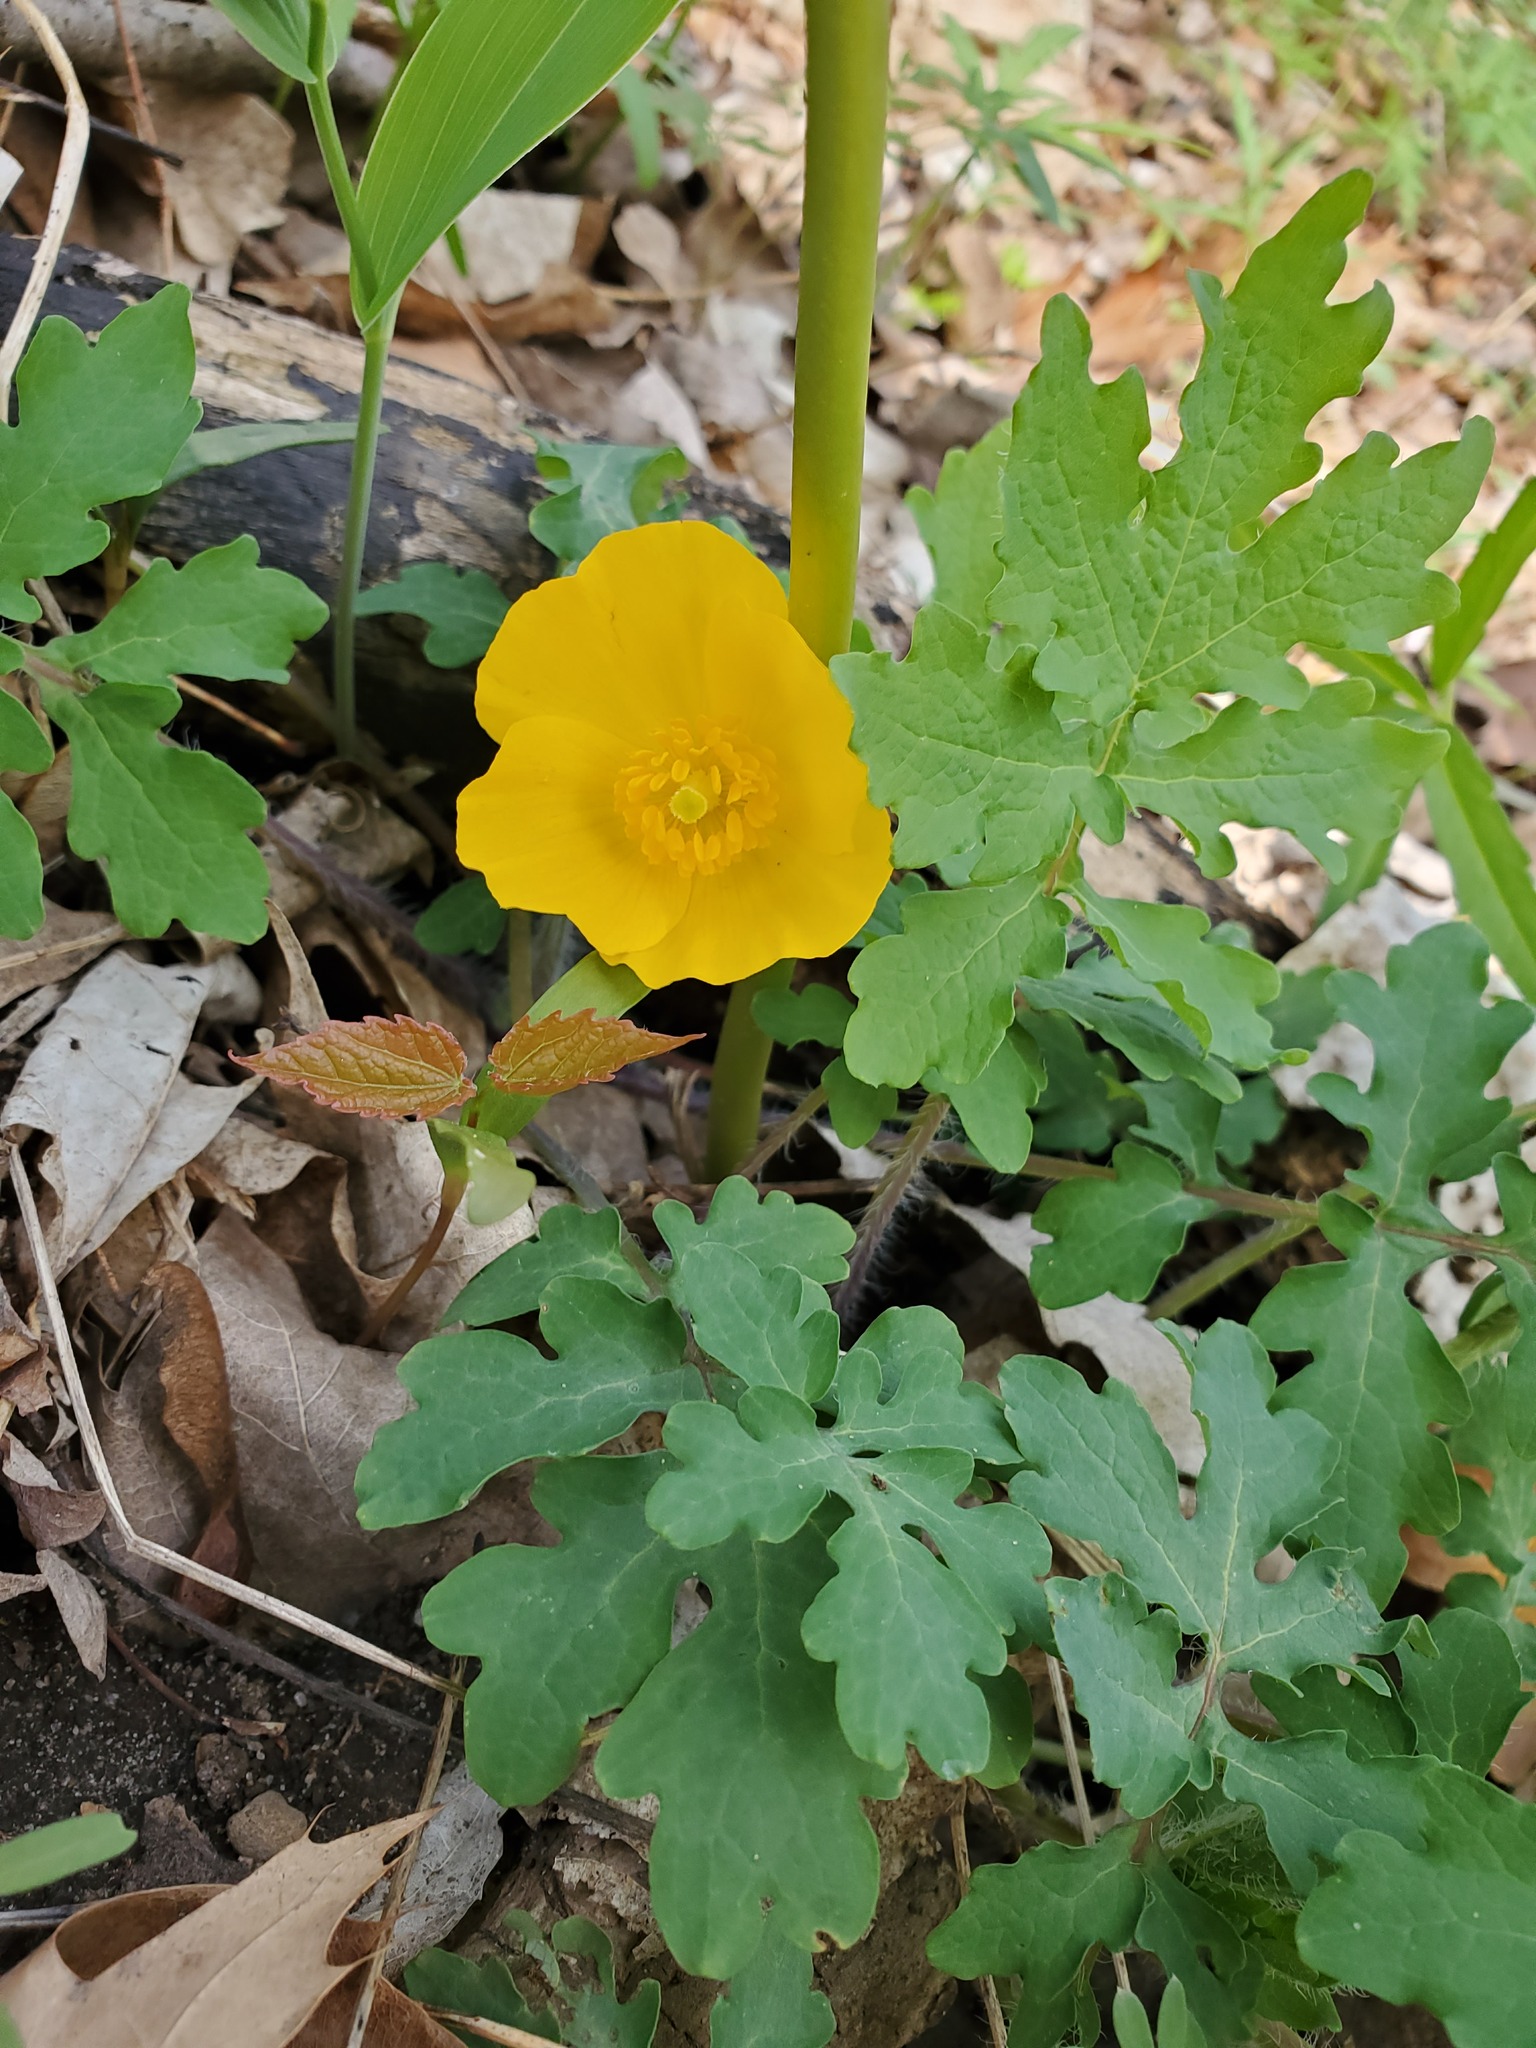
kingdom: Plantae
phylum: Tracheophyta
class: Magnoliopsida
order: Ranunculales
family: Papaveraceae
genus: Stylophorum
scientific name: Stylophorum diphyllum
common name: Celandine poppy
